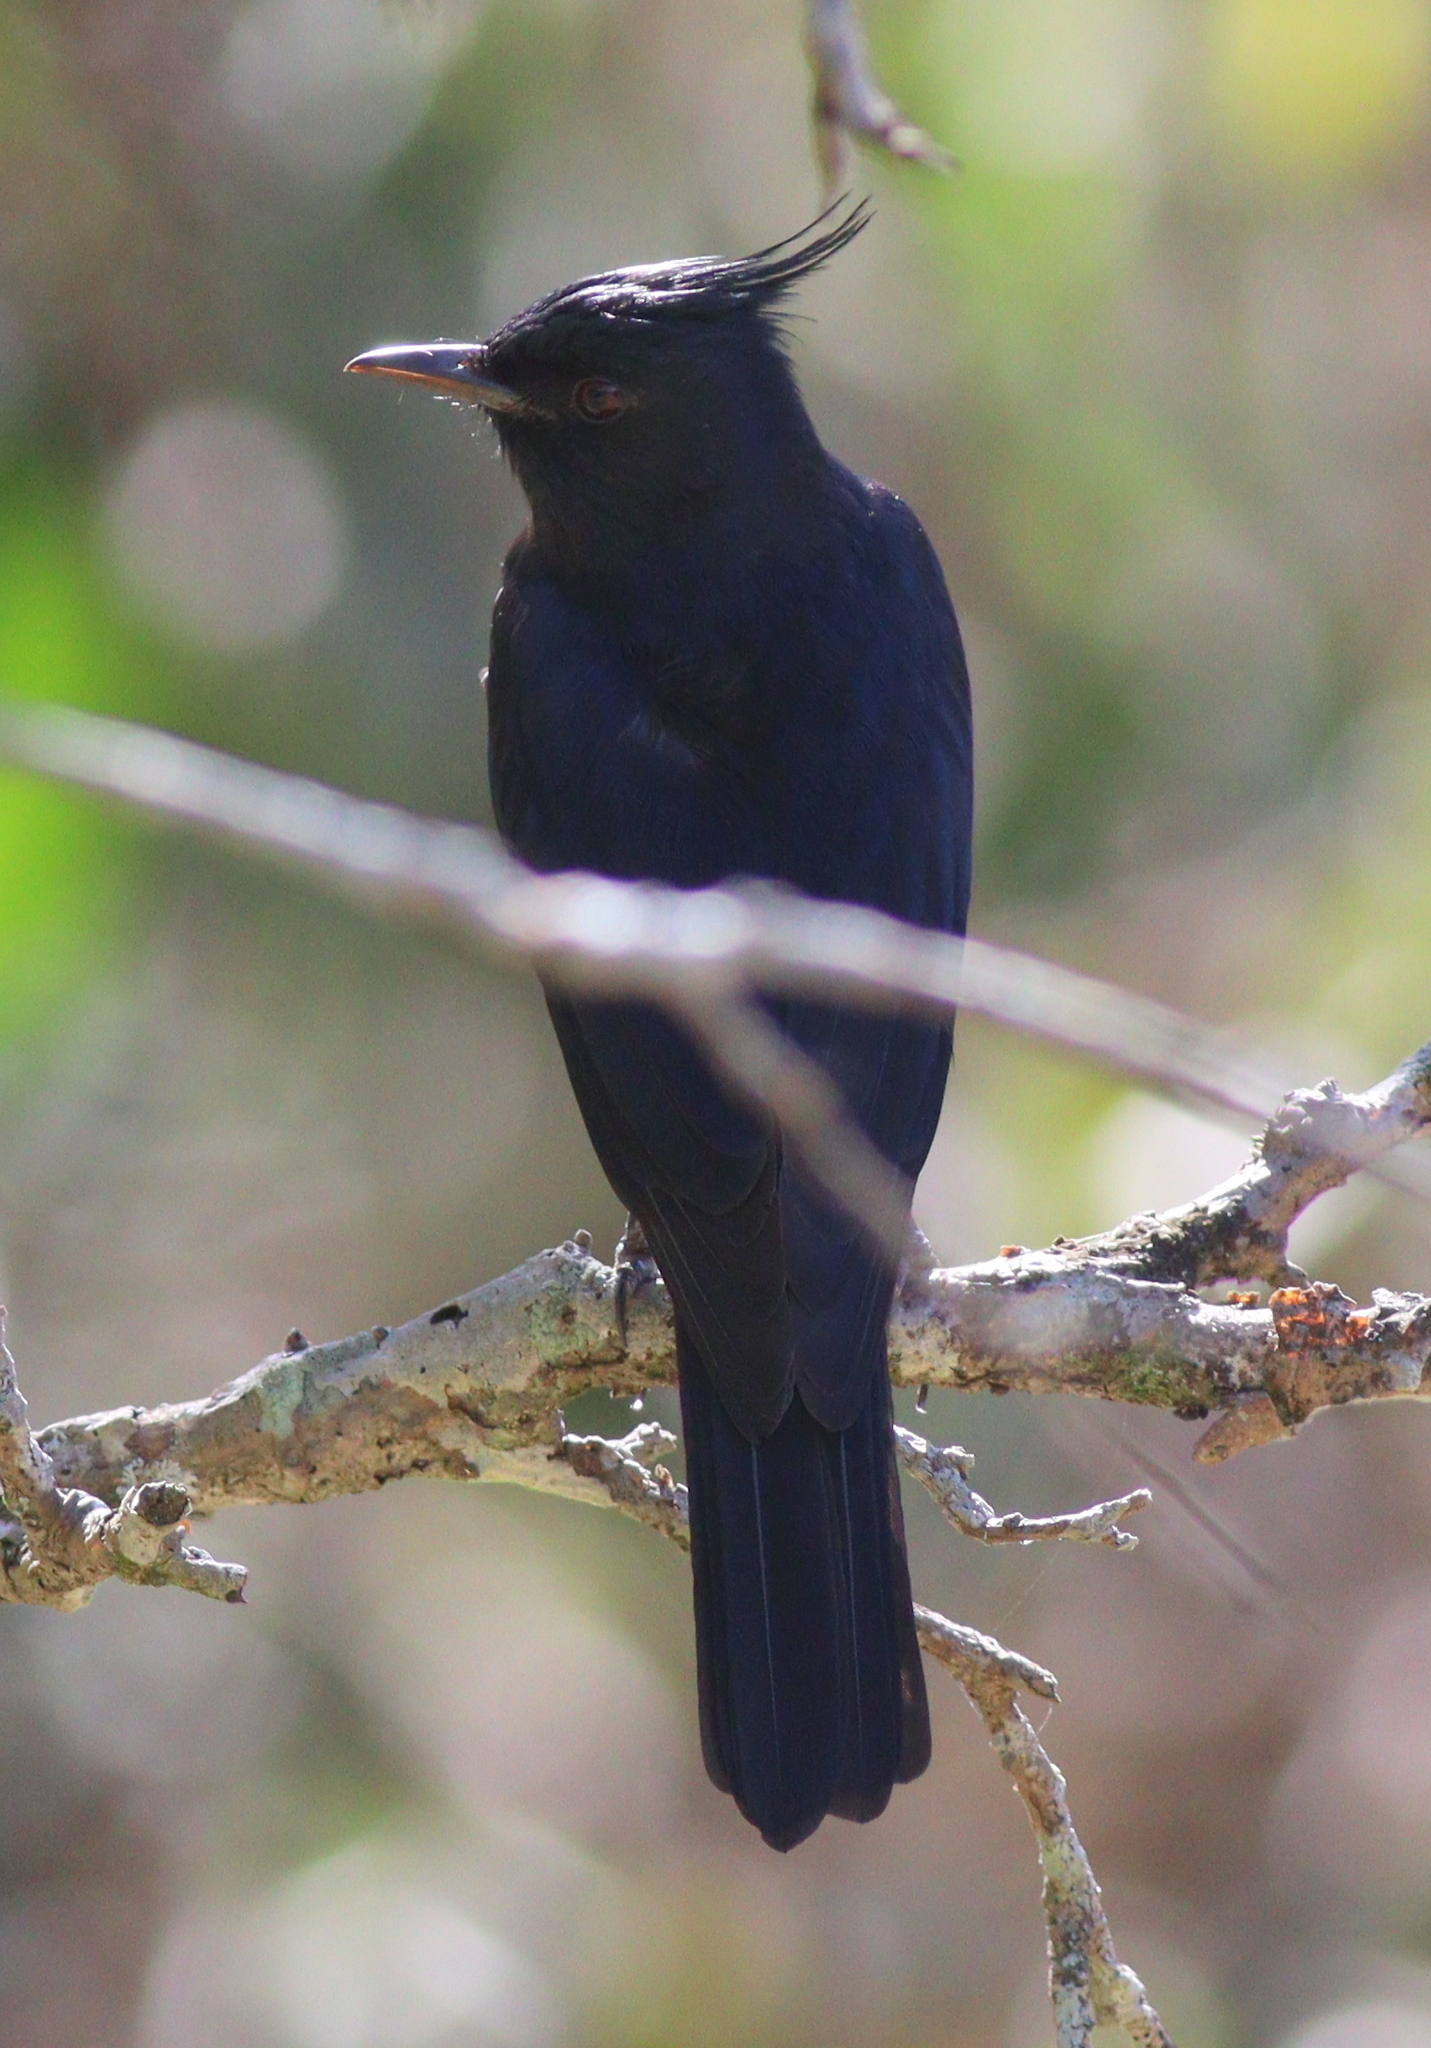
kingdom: Animalia
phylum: Chordata
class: Aves
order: Passeriformes
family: Tyrannidae
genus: Knipolegus
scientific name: Knipolegus lophotes
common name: Crested black tyrant
